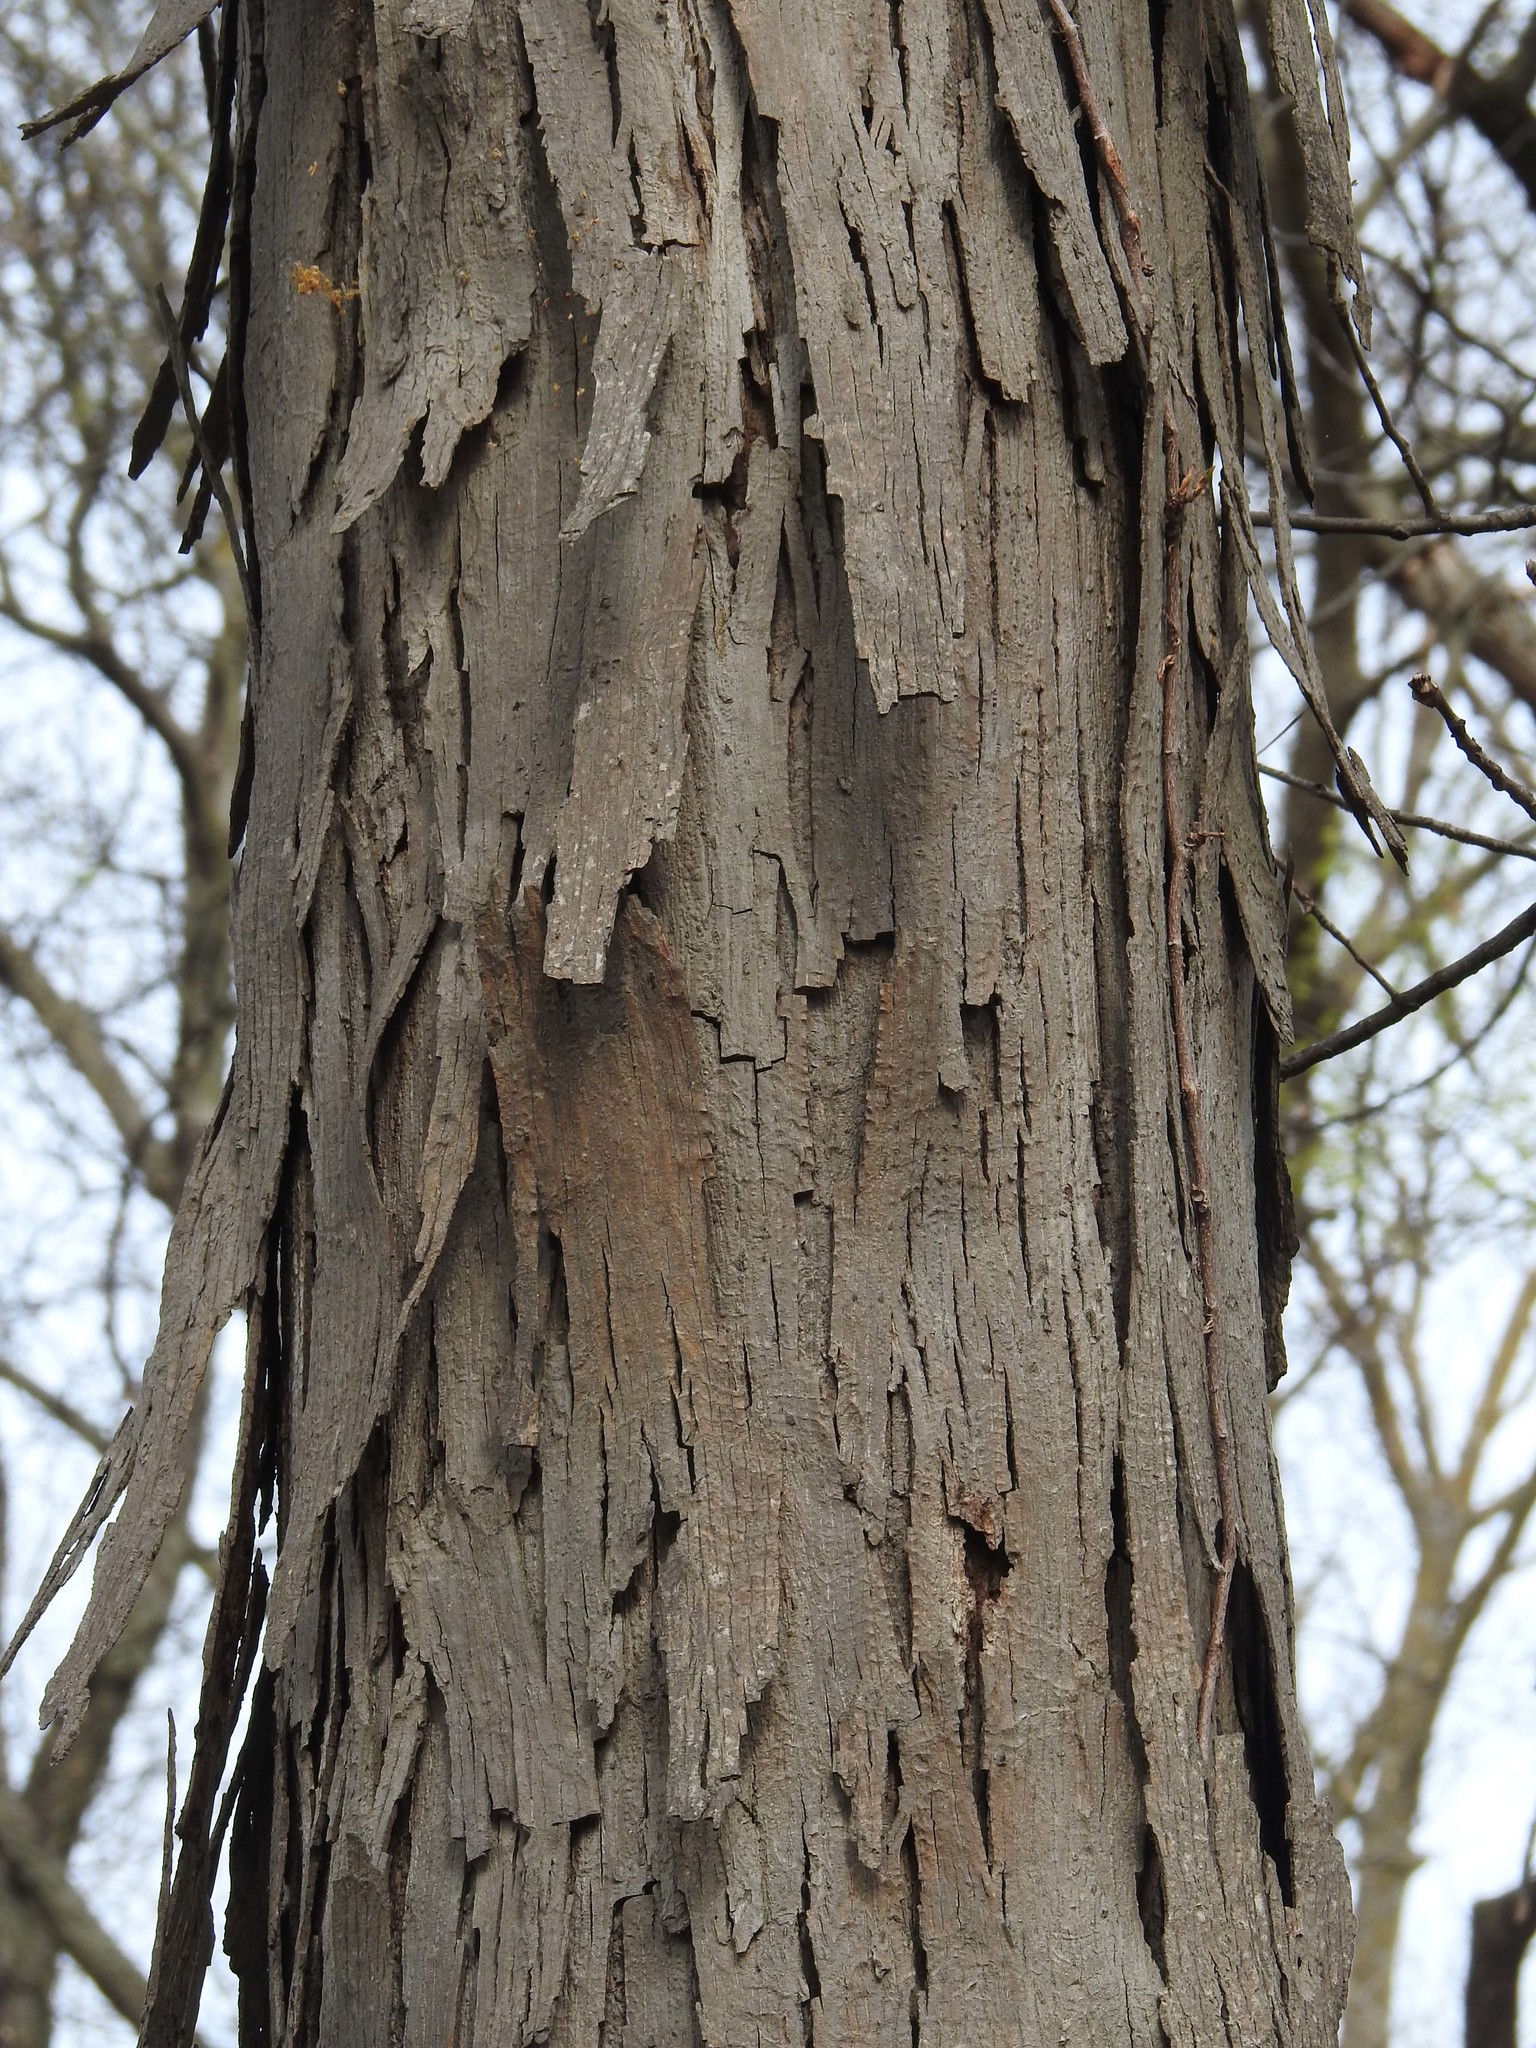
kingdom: Plantae
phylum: Tracheophyta
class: Magnoliopsida
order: Fagales
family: Juglandaceae
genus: Carya
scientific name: Carya ovata
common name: Shagbark hickory
